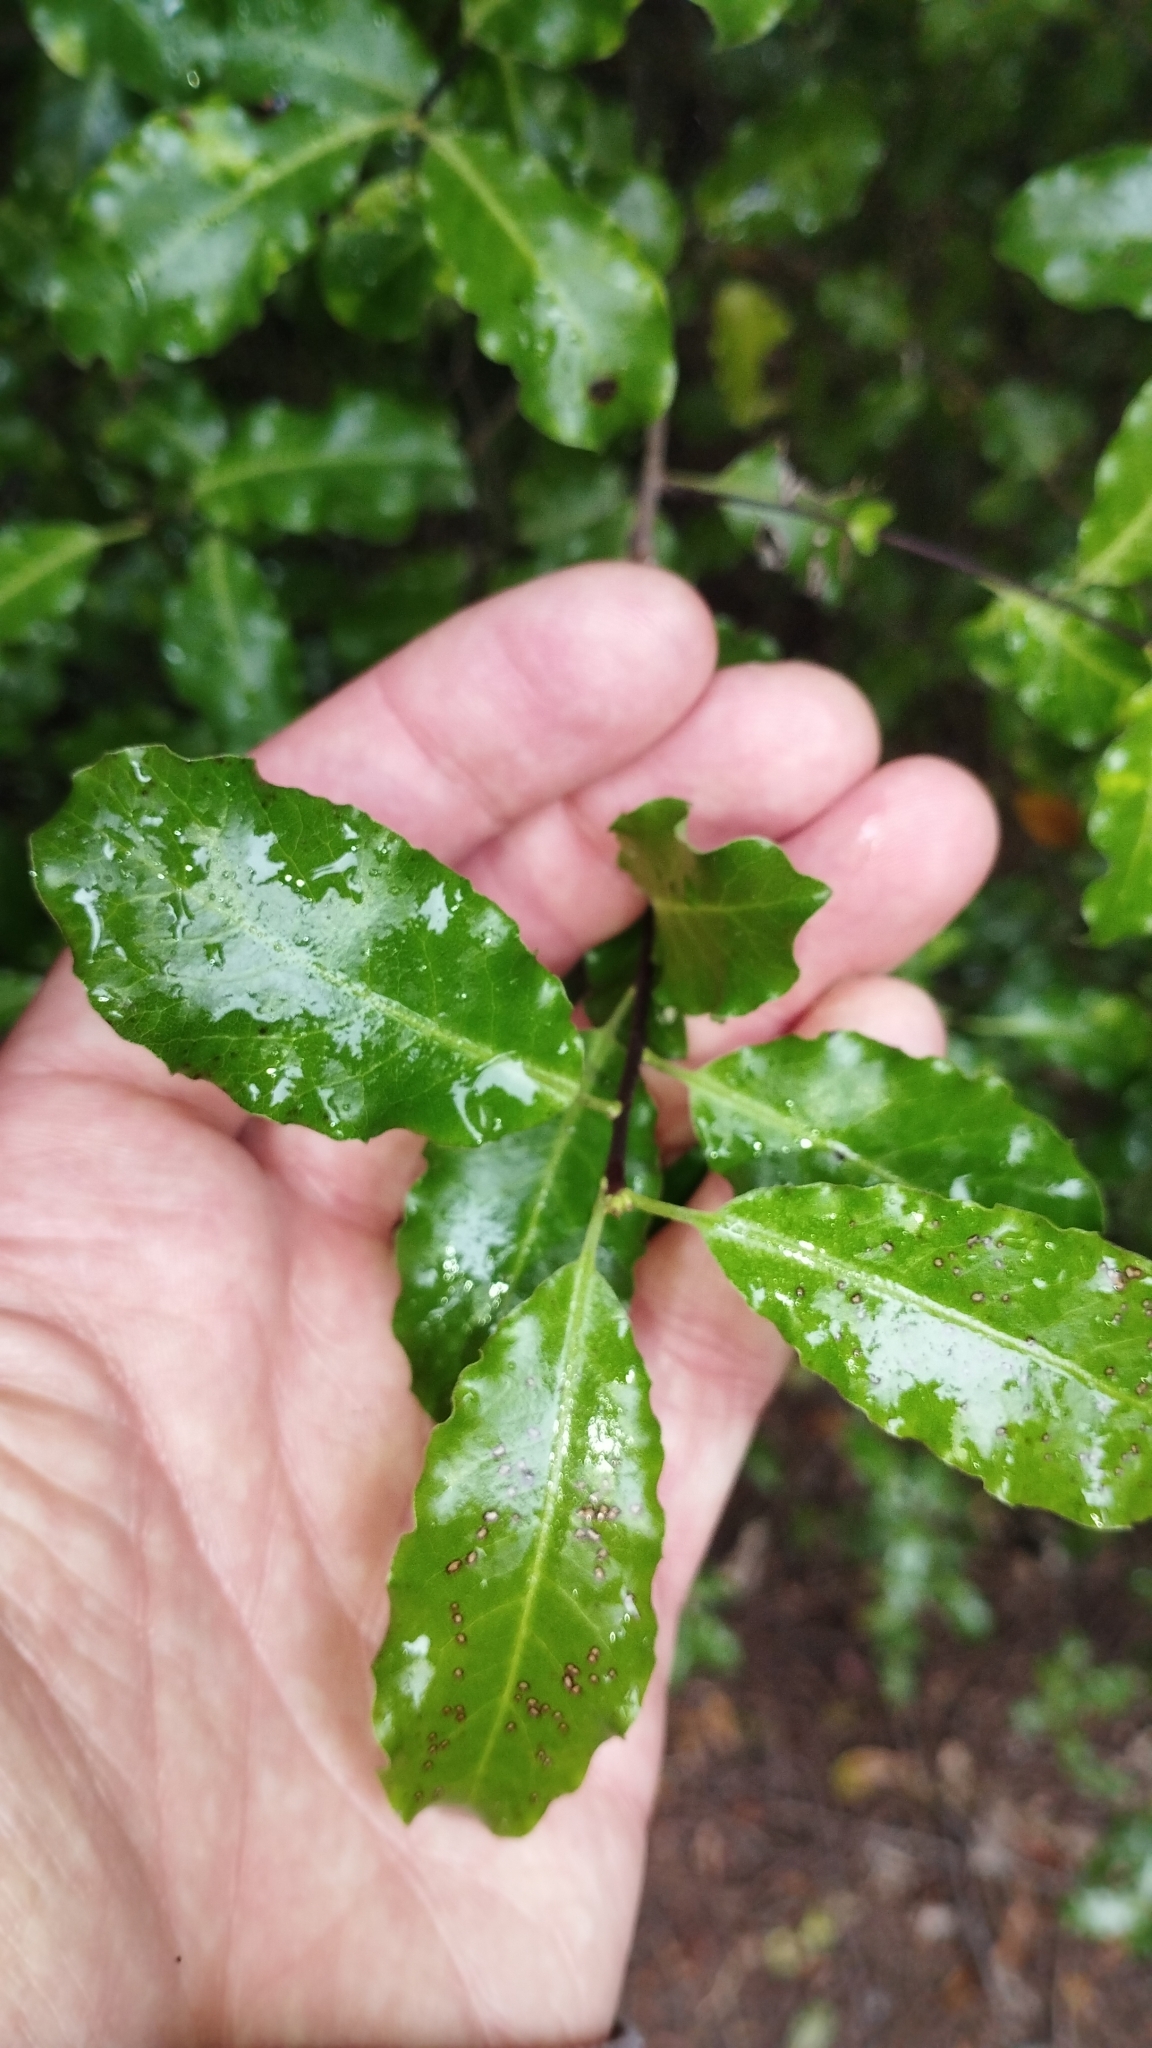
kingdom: Plantae
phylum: Tracheophyta
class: Magnoliopsida
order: Apiales
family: Pittosporaceae
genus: Pittosporum
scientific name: Pittosporum tenuifolium
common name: Kohuhu
